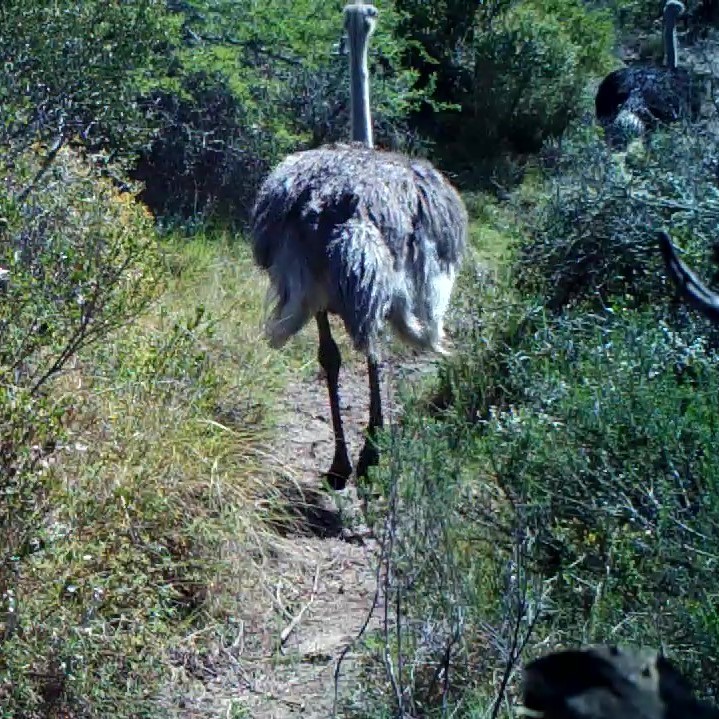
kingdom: Animalia
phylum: Chordata
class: Aves
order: Struthioniformes
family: Struthionidae
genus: Struthio
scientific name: Struthio camelus
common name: Common ostrich
